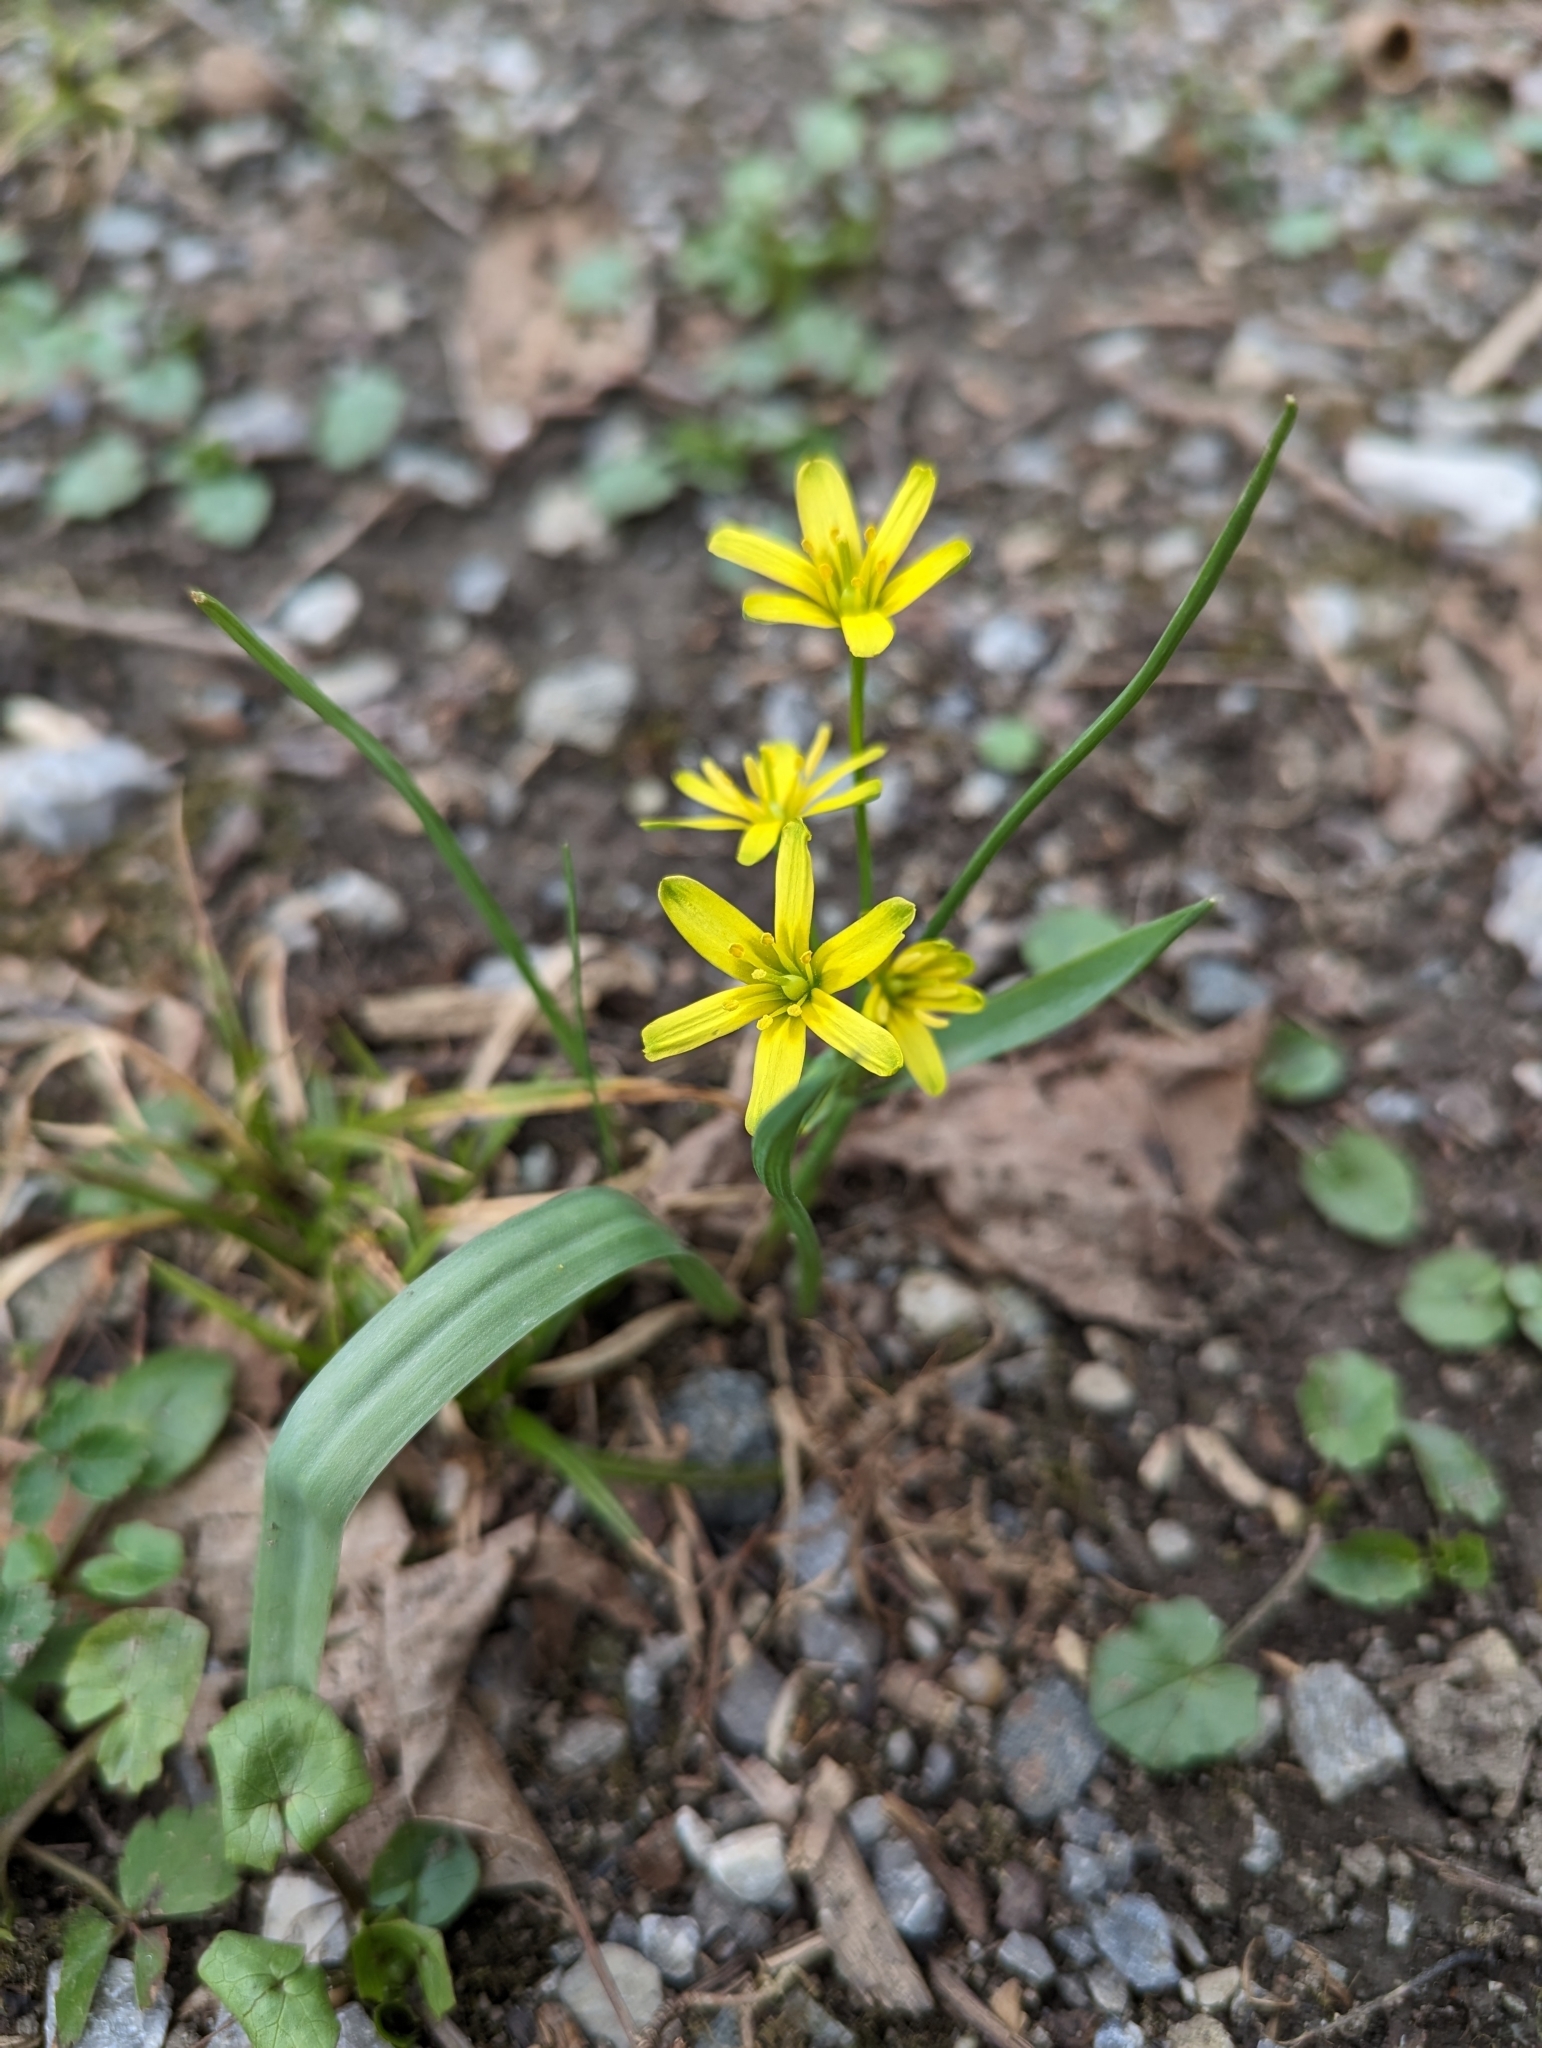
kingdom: Plantae
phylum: Tracheophyta
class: Liliopsida
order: Liliales
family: Liliaceae
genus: Gagea
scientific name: Gagea lutea
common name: Yellow star-of-bethlehem
